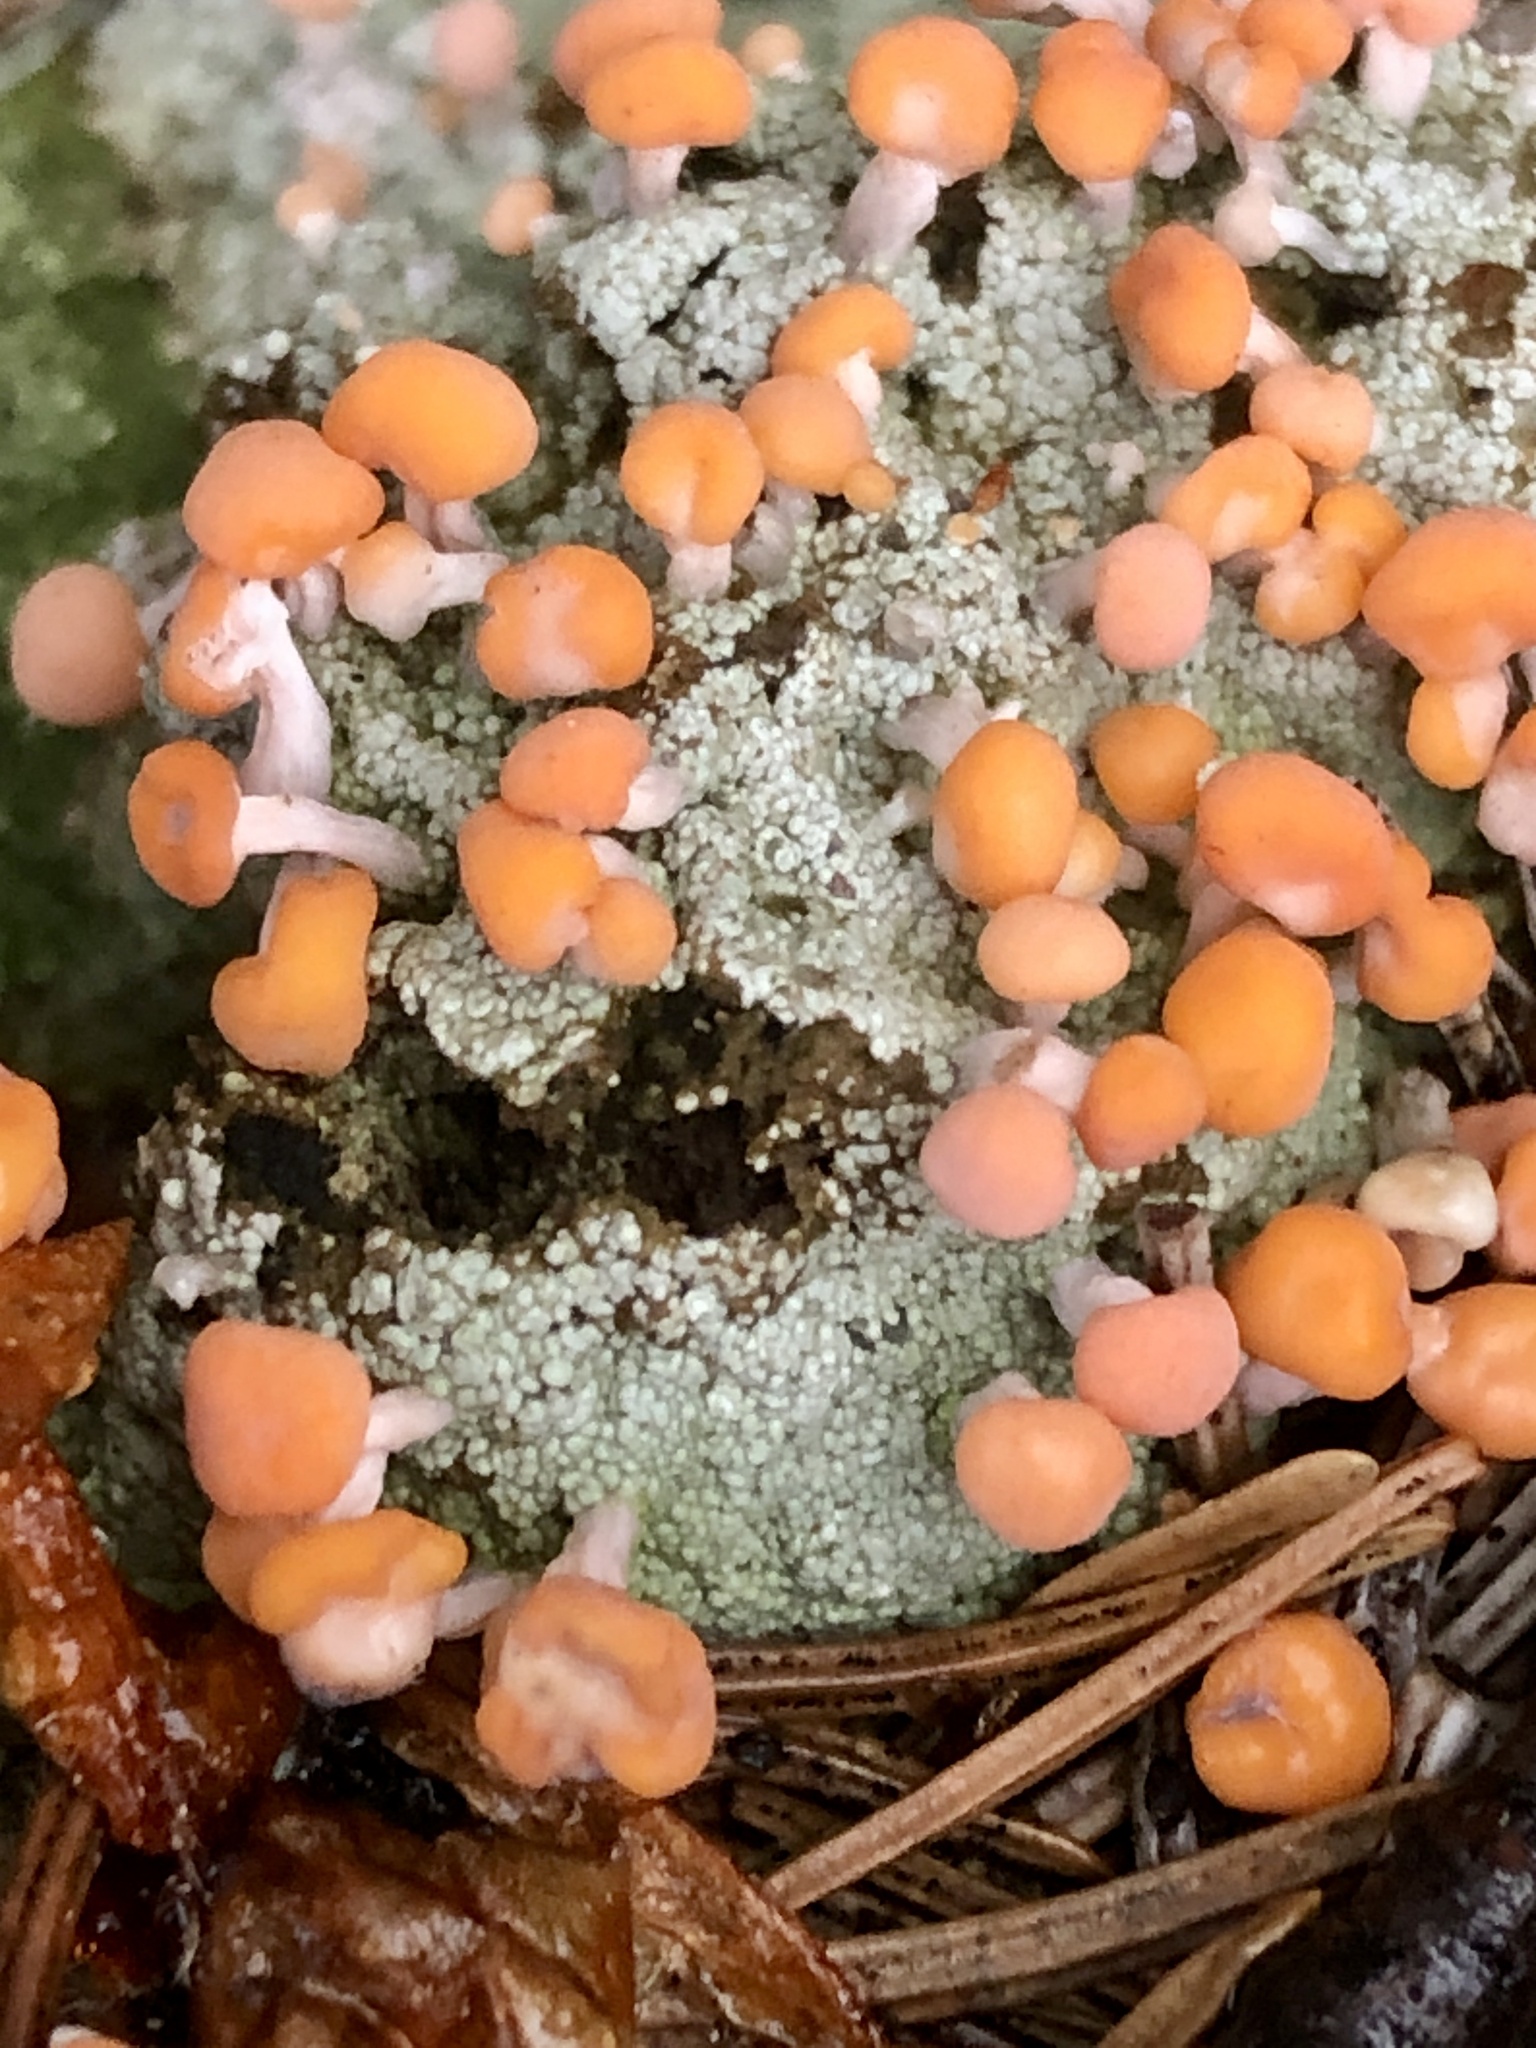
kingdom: Fungi
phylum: Ascomycota
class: Lecanoromycetes
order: Pertusariales
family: Icmadophilaceae
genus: Dibaeis
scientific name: Dibaeis baeomyces
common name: Pink earth lichen
